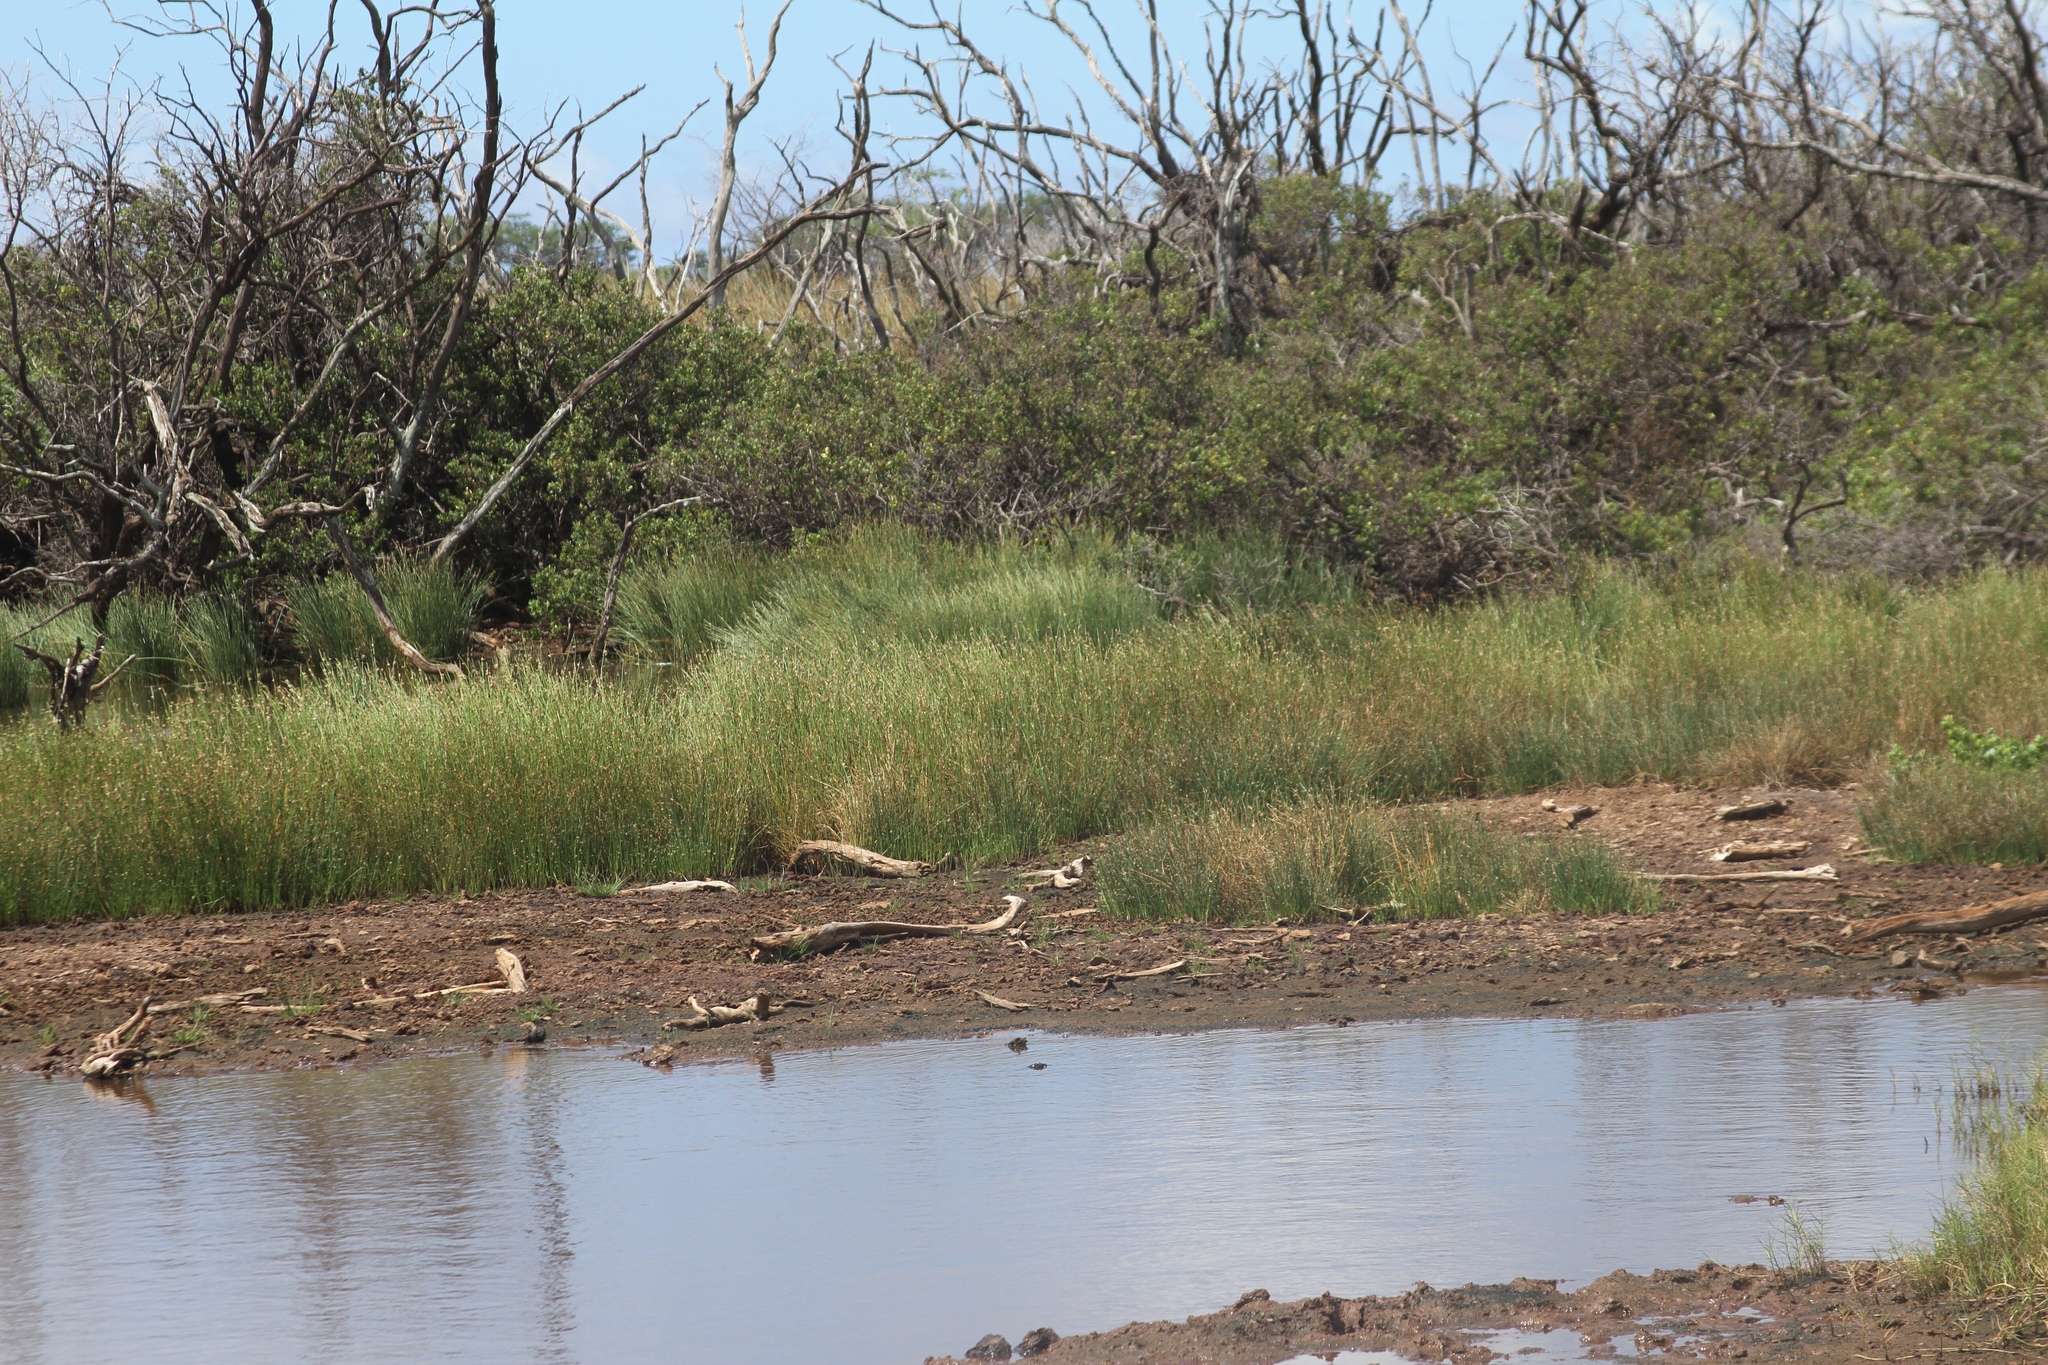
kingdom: Plantae
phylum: Tracheophyta
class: Liliopsida
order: Poales
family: Cyperaceae
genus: Cyperus
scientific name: Cyperus laevigatus
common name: Smooth flat sedge
